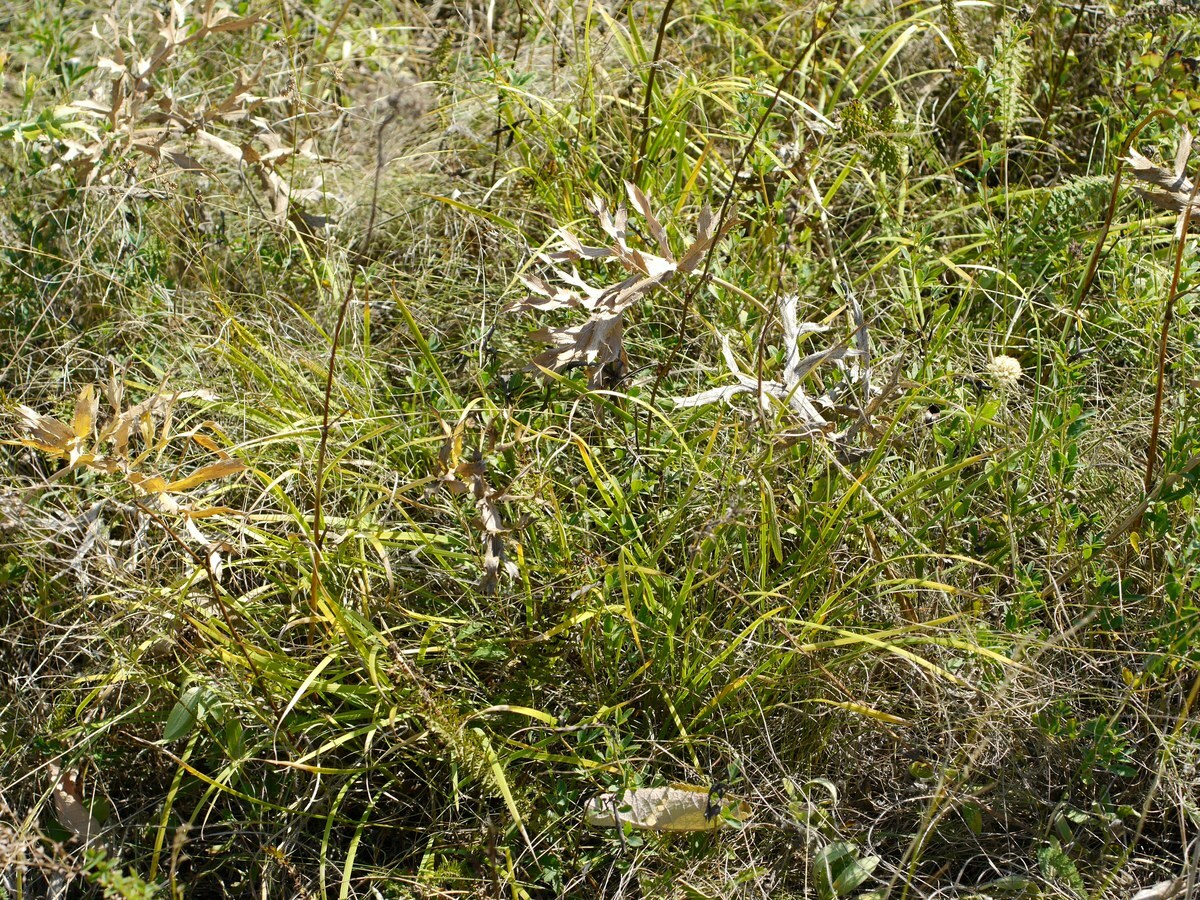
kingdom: Plantae
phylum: Tracheophyta
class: Liliopsida
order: Asparagales
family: Iridaceae
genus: Iris
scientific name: Iris pontica
